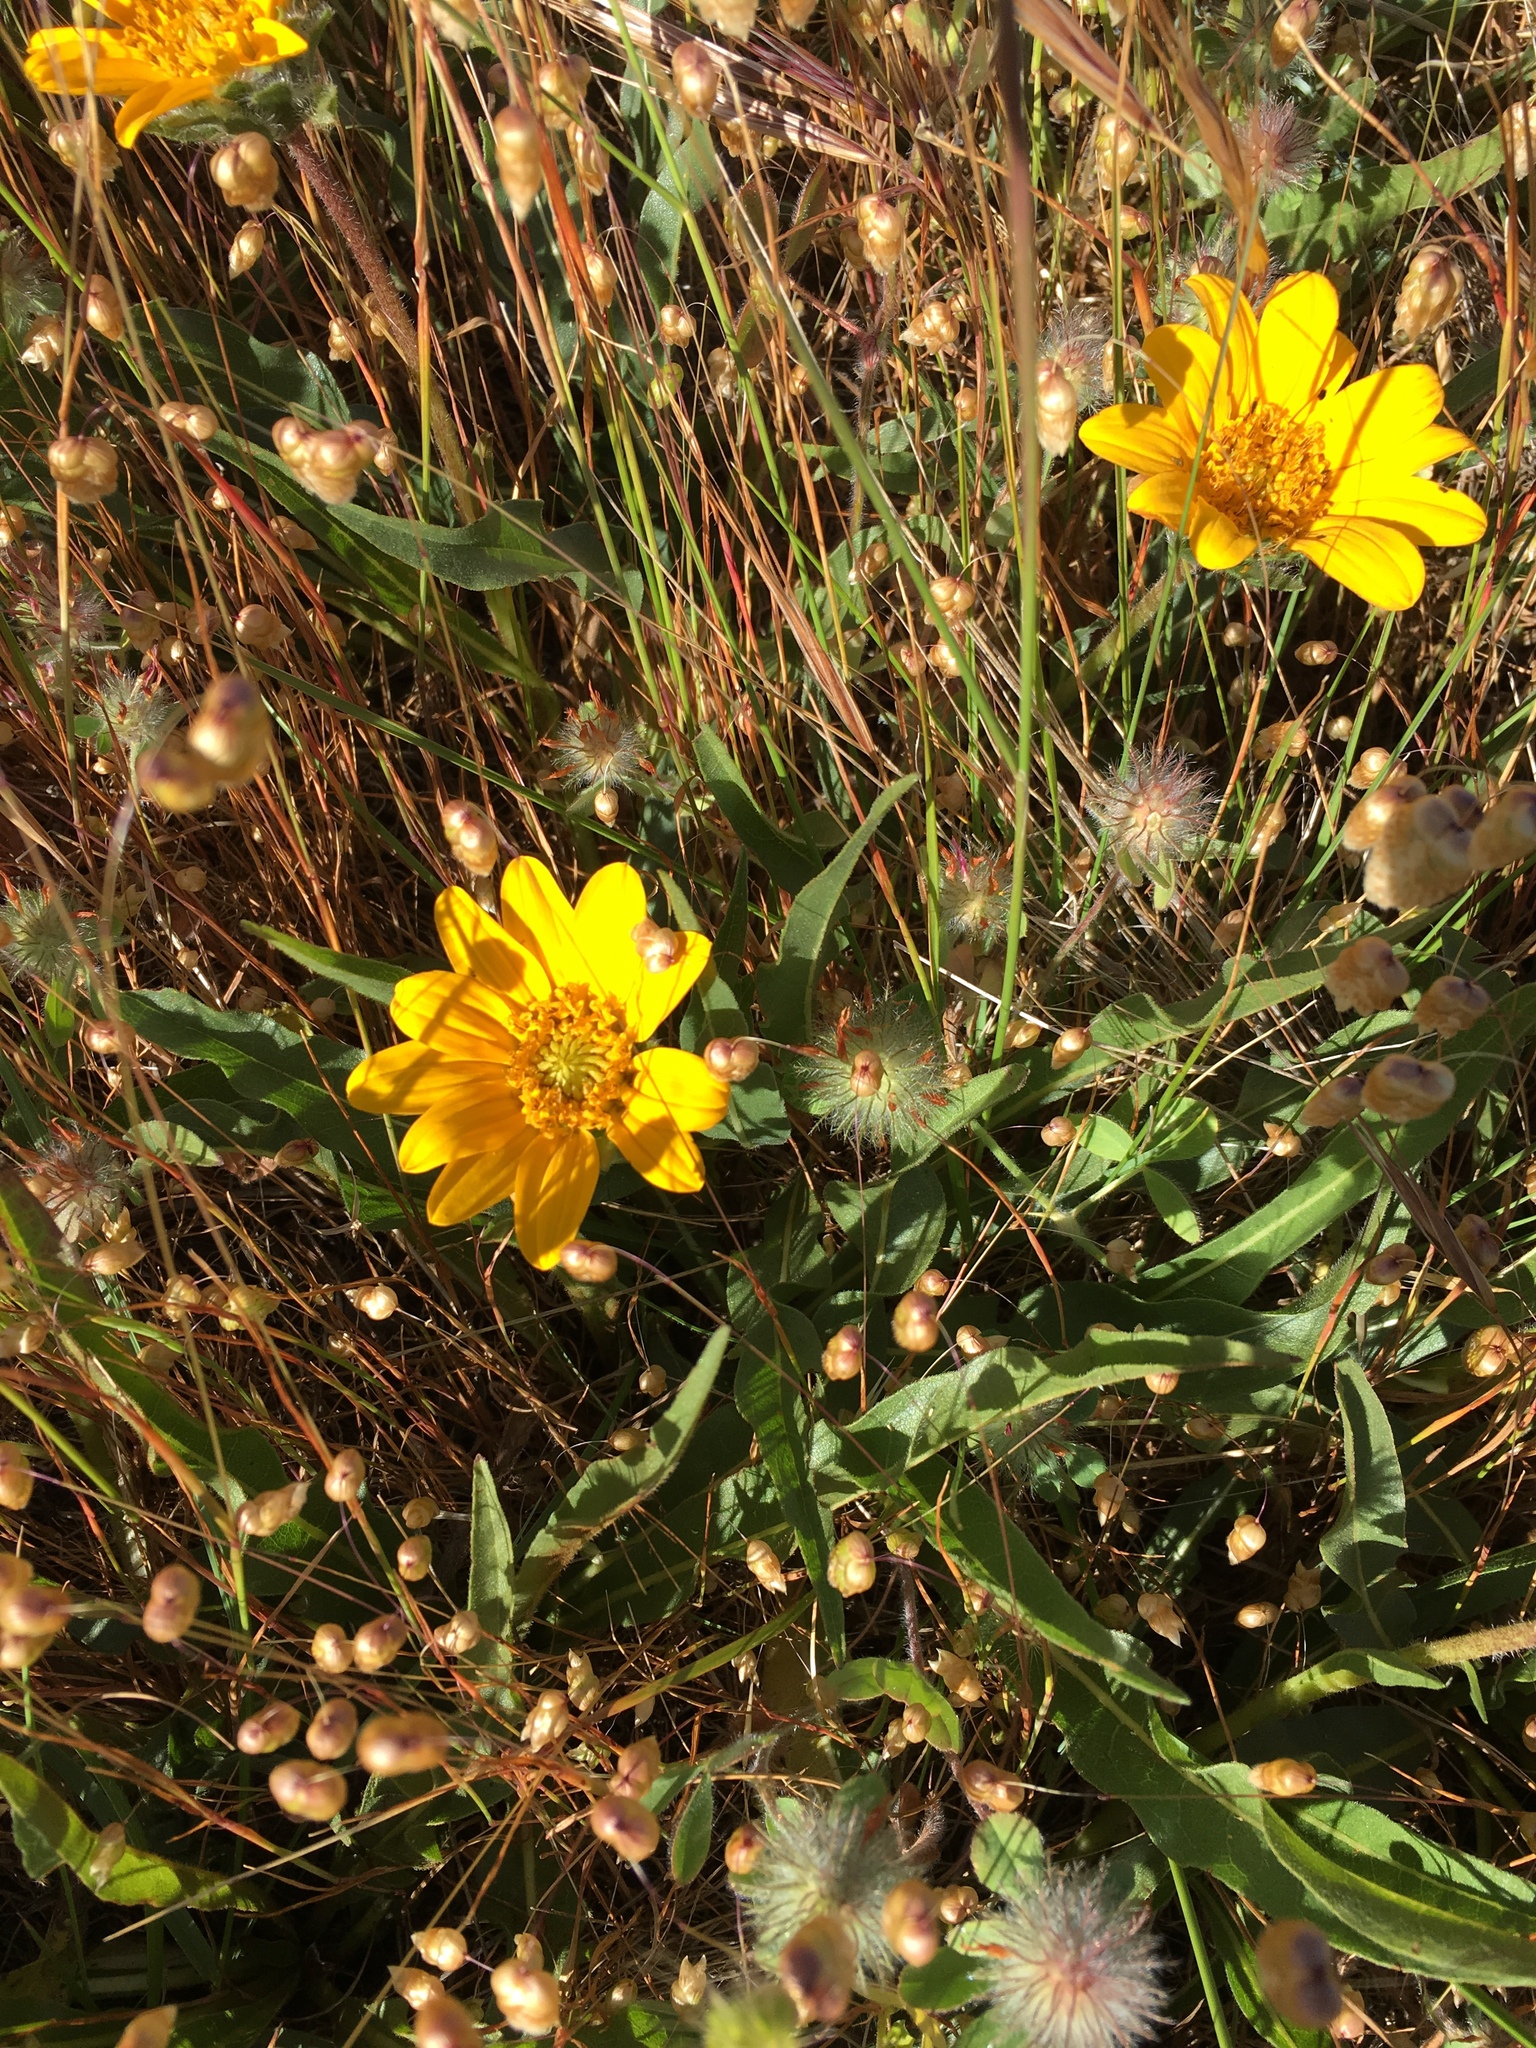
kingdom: Plantae
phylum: Tracheophyta
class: Magnoliopsida
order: Asterales
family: Asteraceae
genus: Wyethia
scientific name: Wyethia angustifolia
